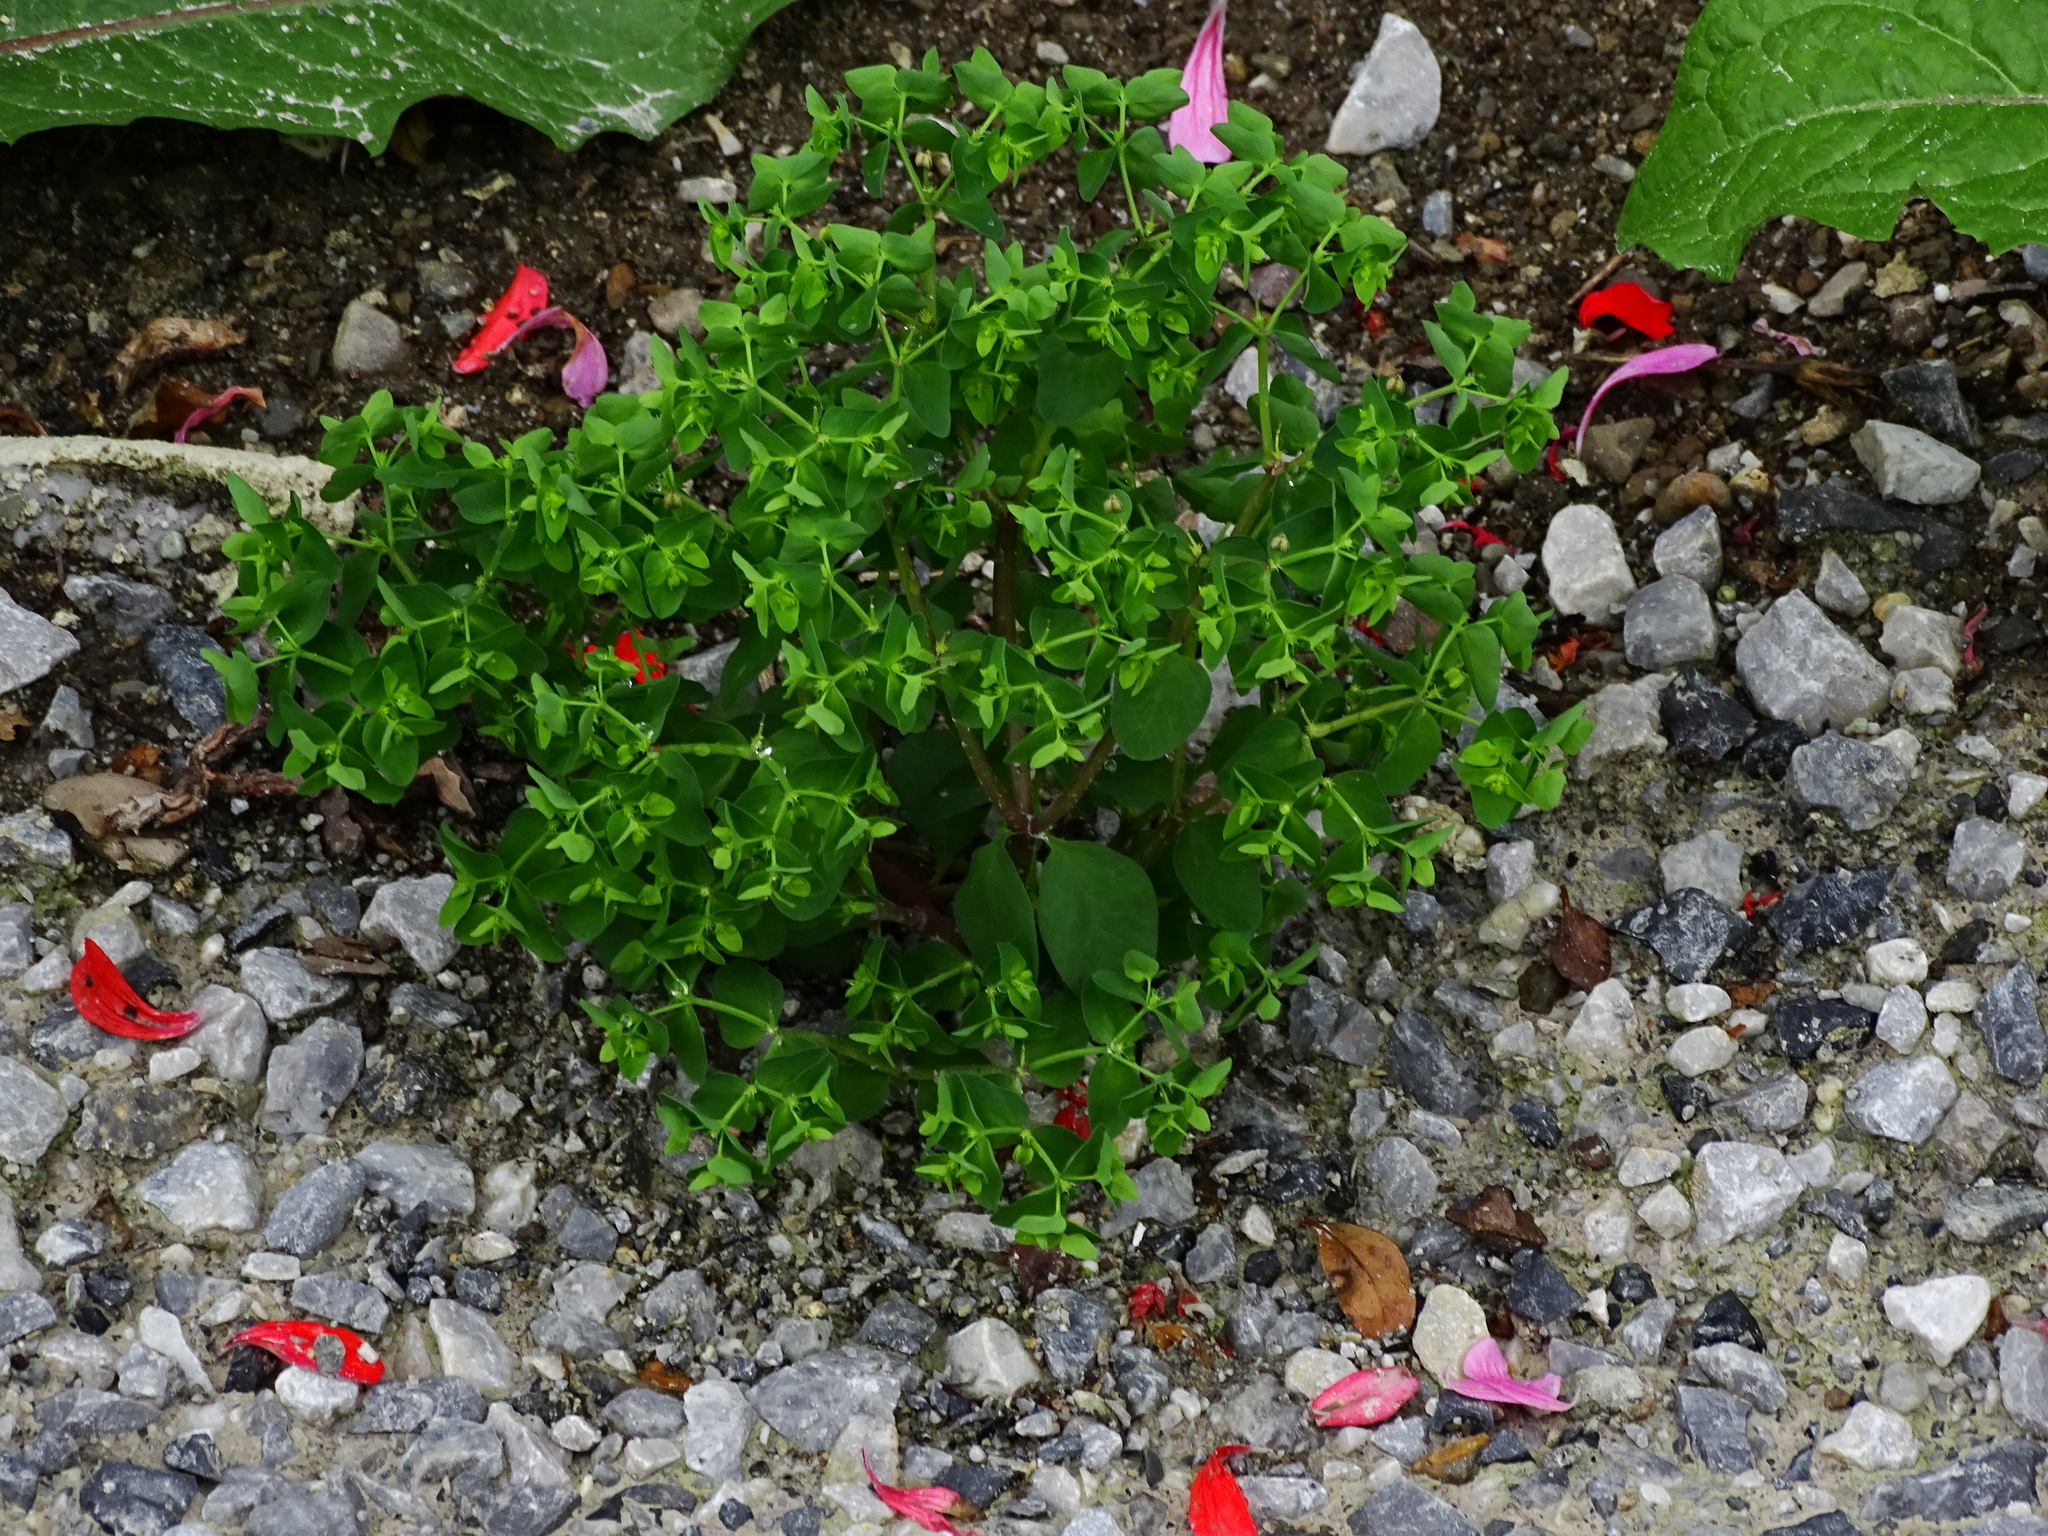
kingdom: Plantae
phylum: Tracheophyta
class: Magnoliopsida
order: Malpighiales
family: Euphorbiaceae
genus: Euphorbia
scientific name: Euphorbia peplus
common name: Petty spurge
